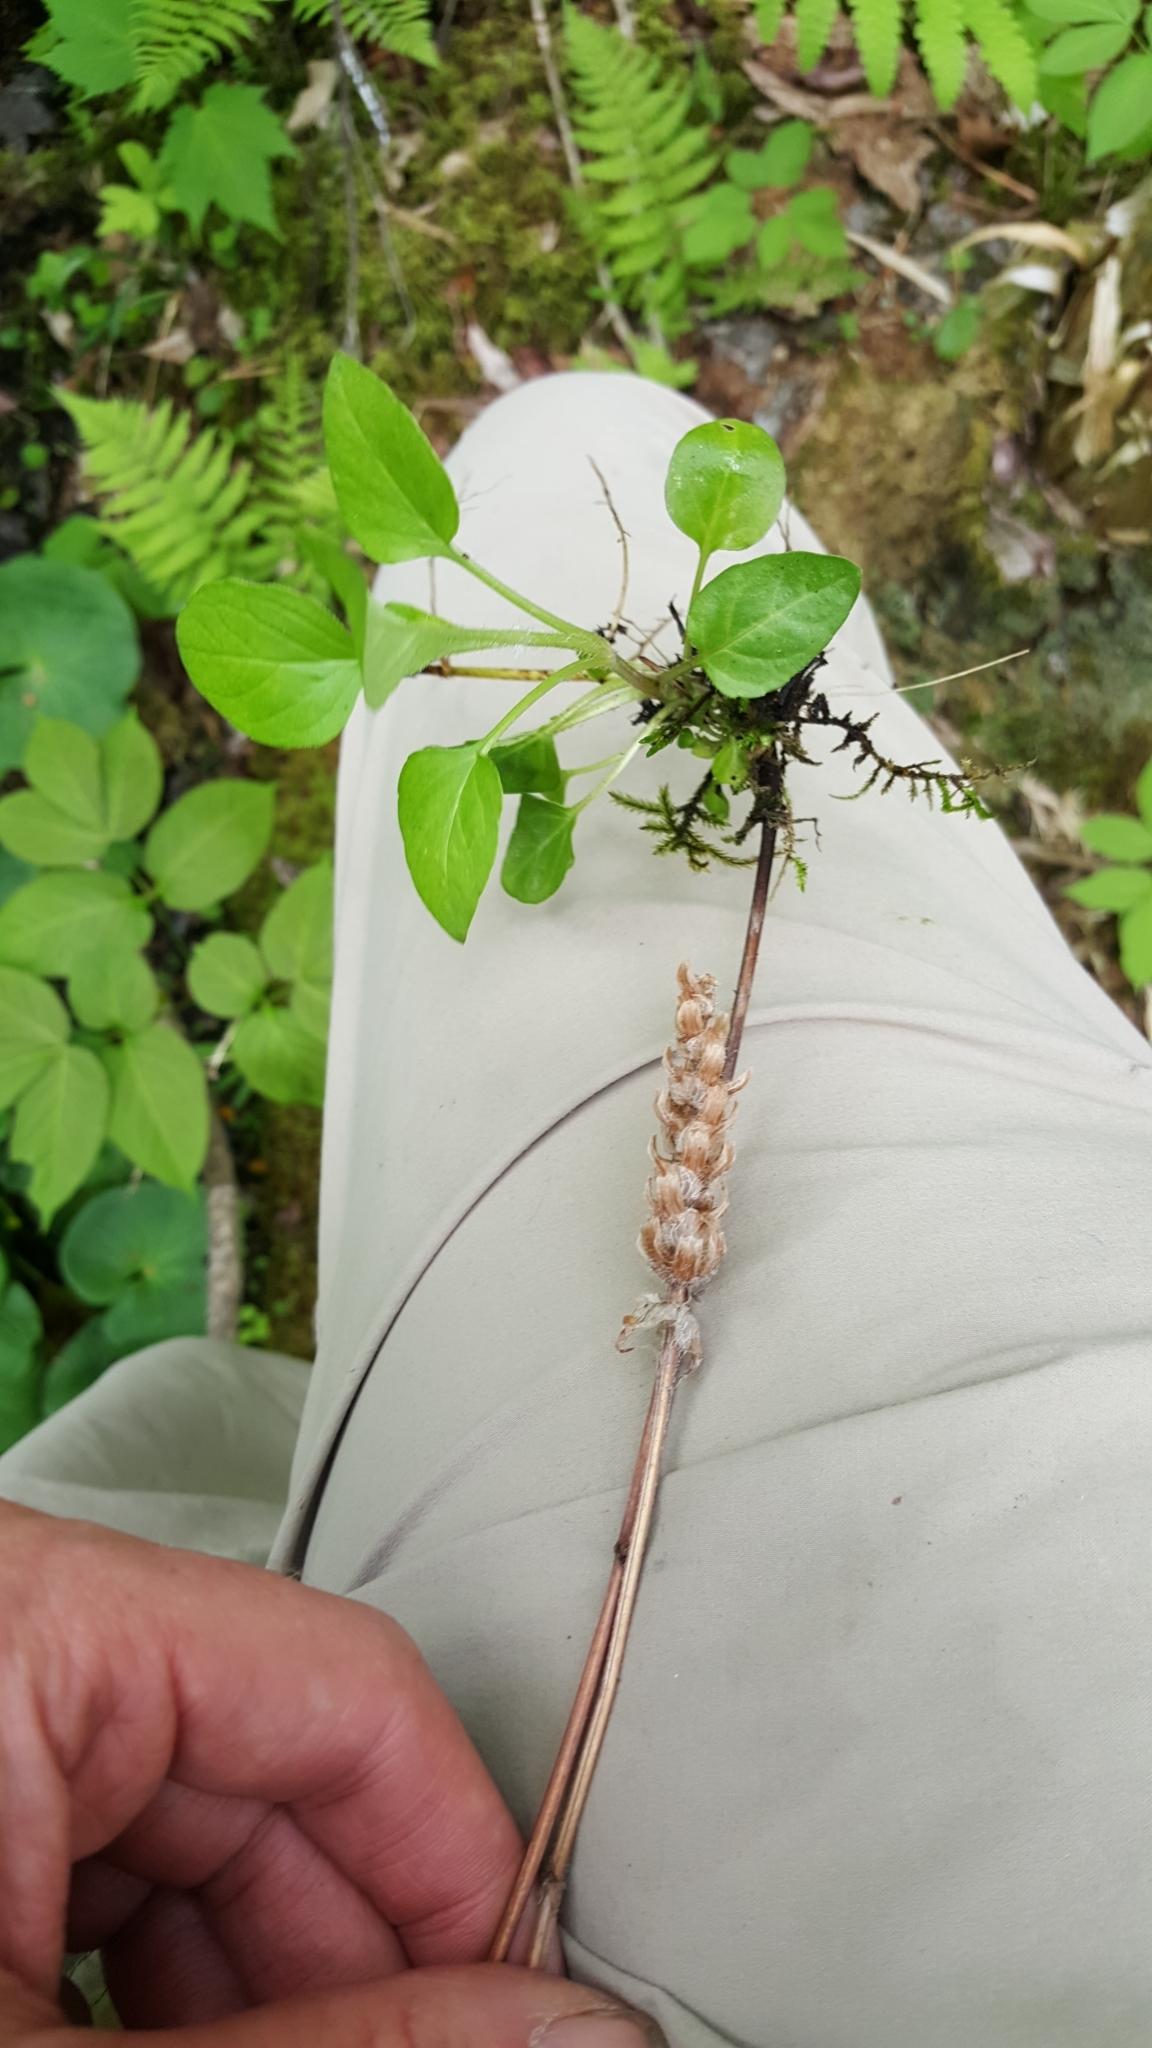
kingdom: Plantae
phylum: Tracheophyta
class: Magnoliopsida
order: Lamiales
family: Lamiaceae
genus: Prunella
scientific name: Prunella vulgaris
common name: Heal-all
